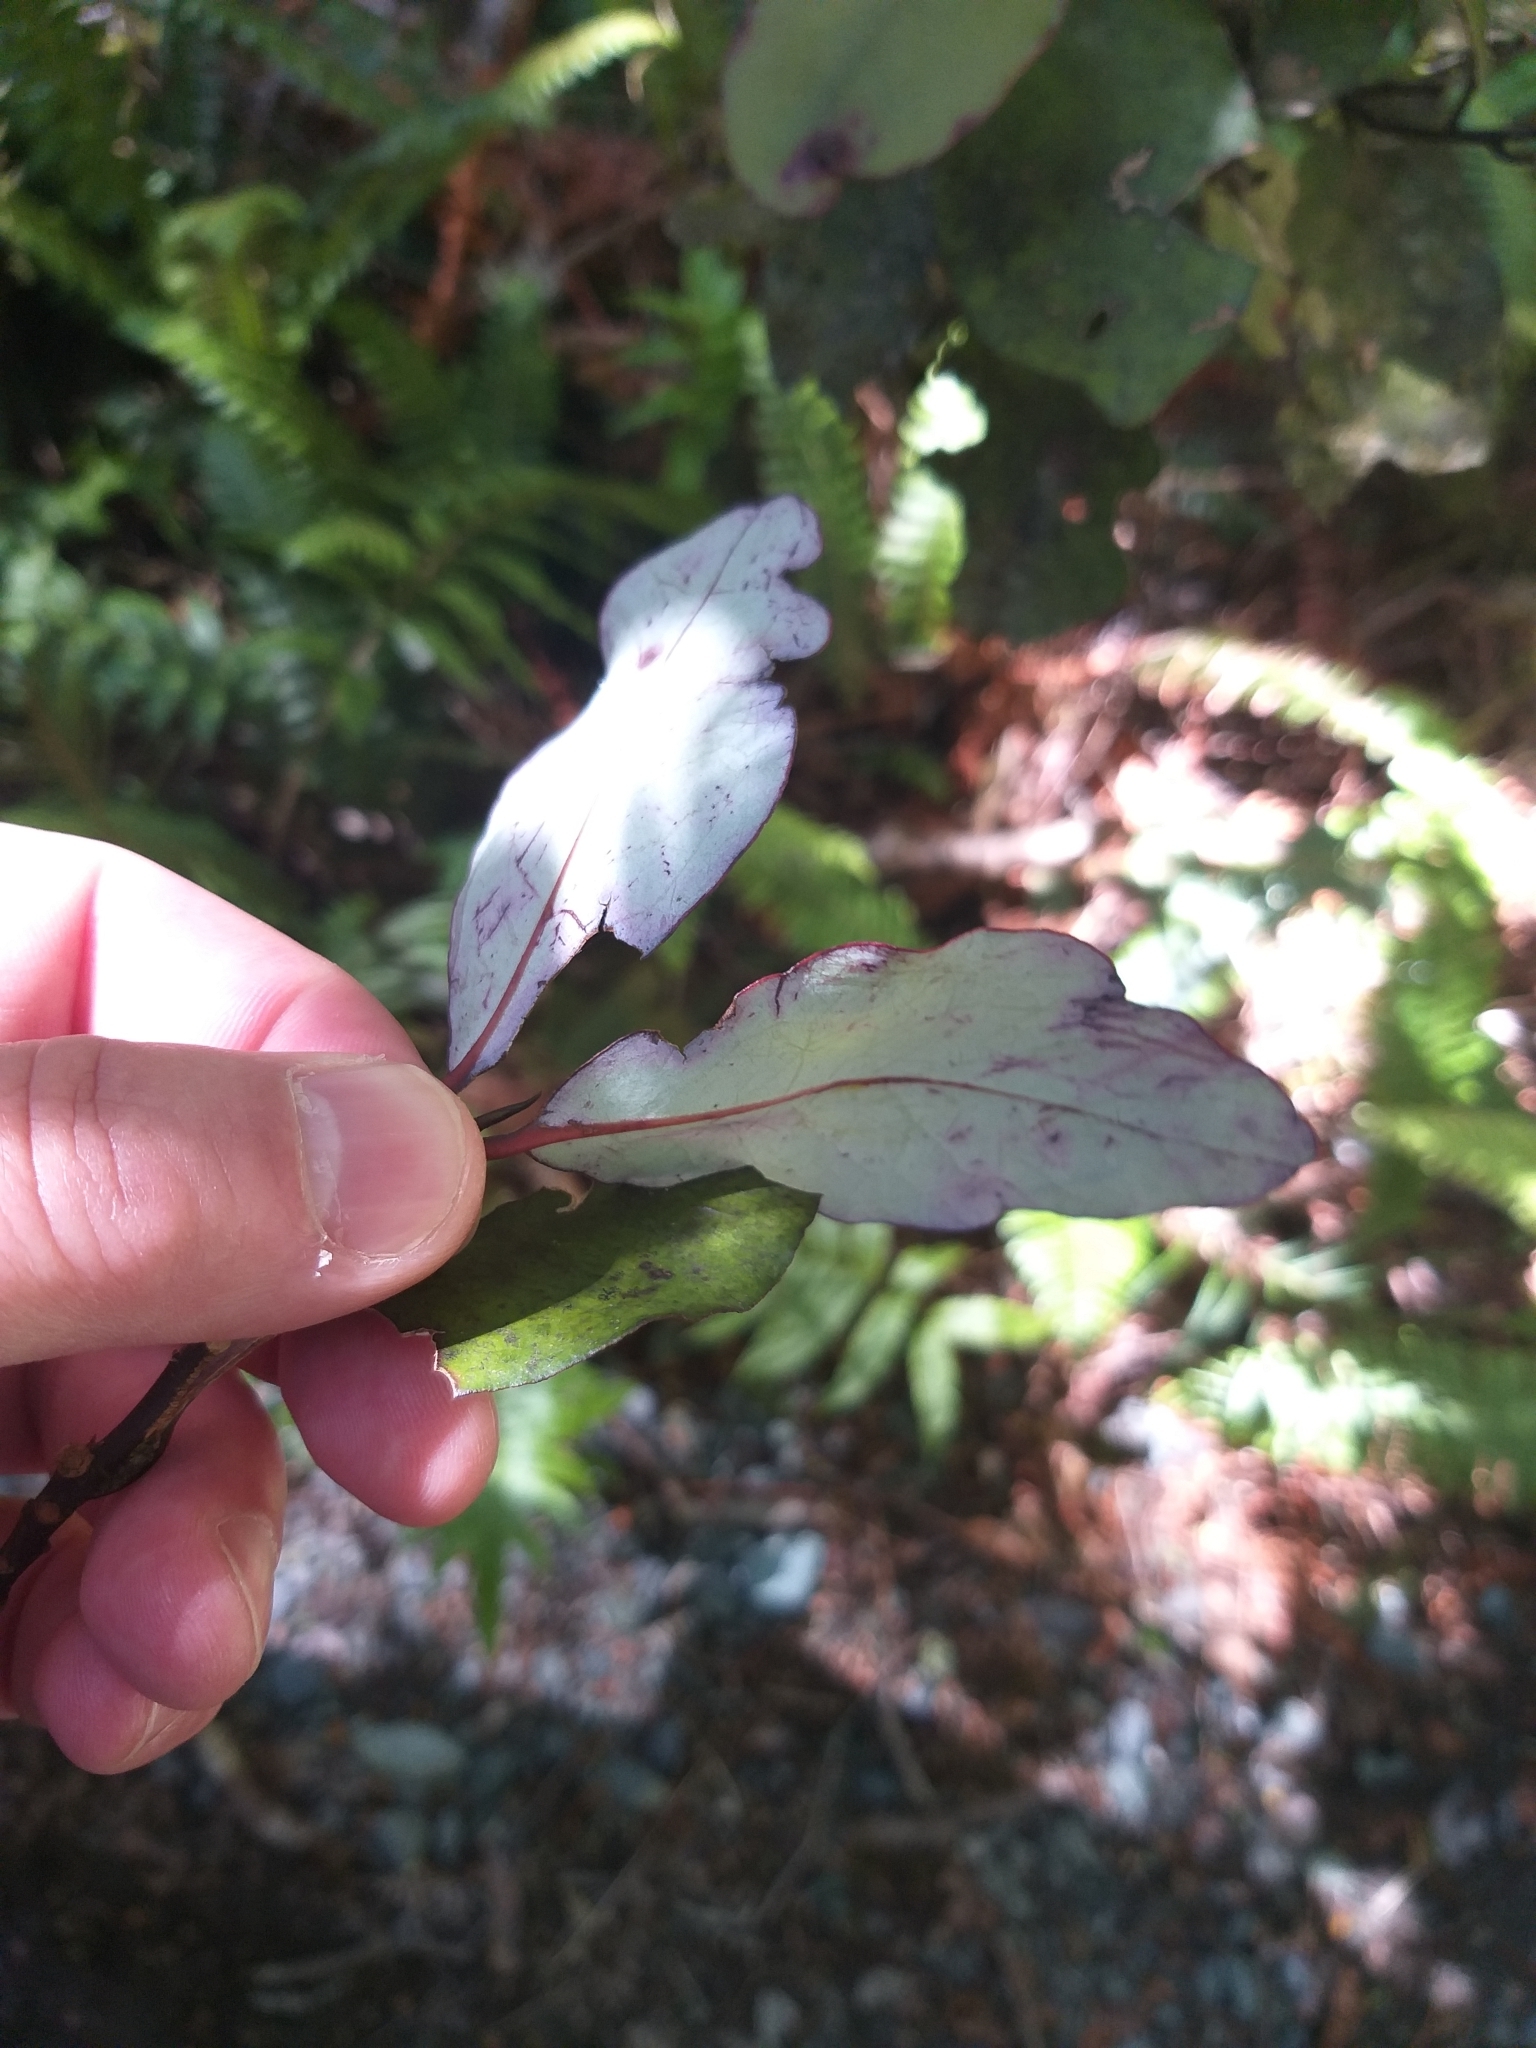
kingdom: Plantae
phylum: Tracheophyta
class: Magnoliopsida
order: Canellales
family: Winteraceae
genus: Pseudowintera
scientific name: Pseudowintera colorata
